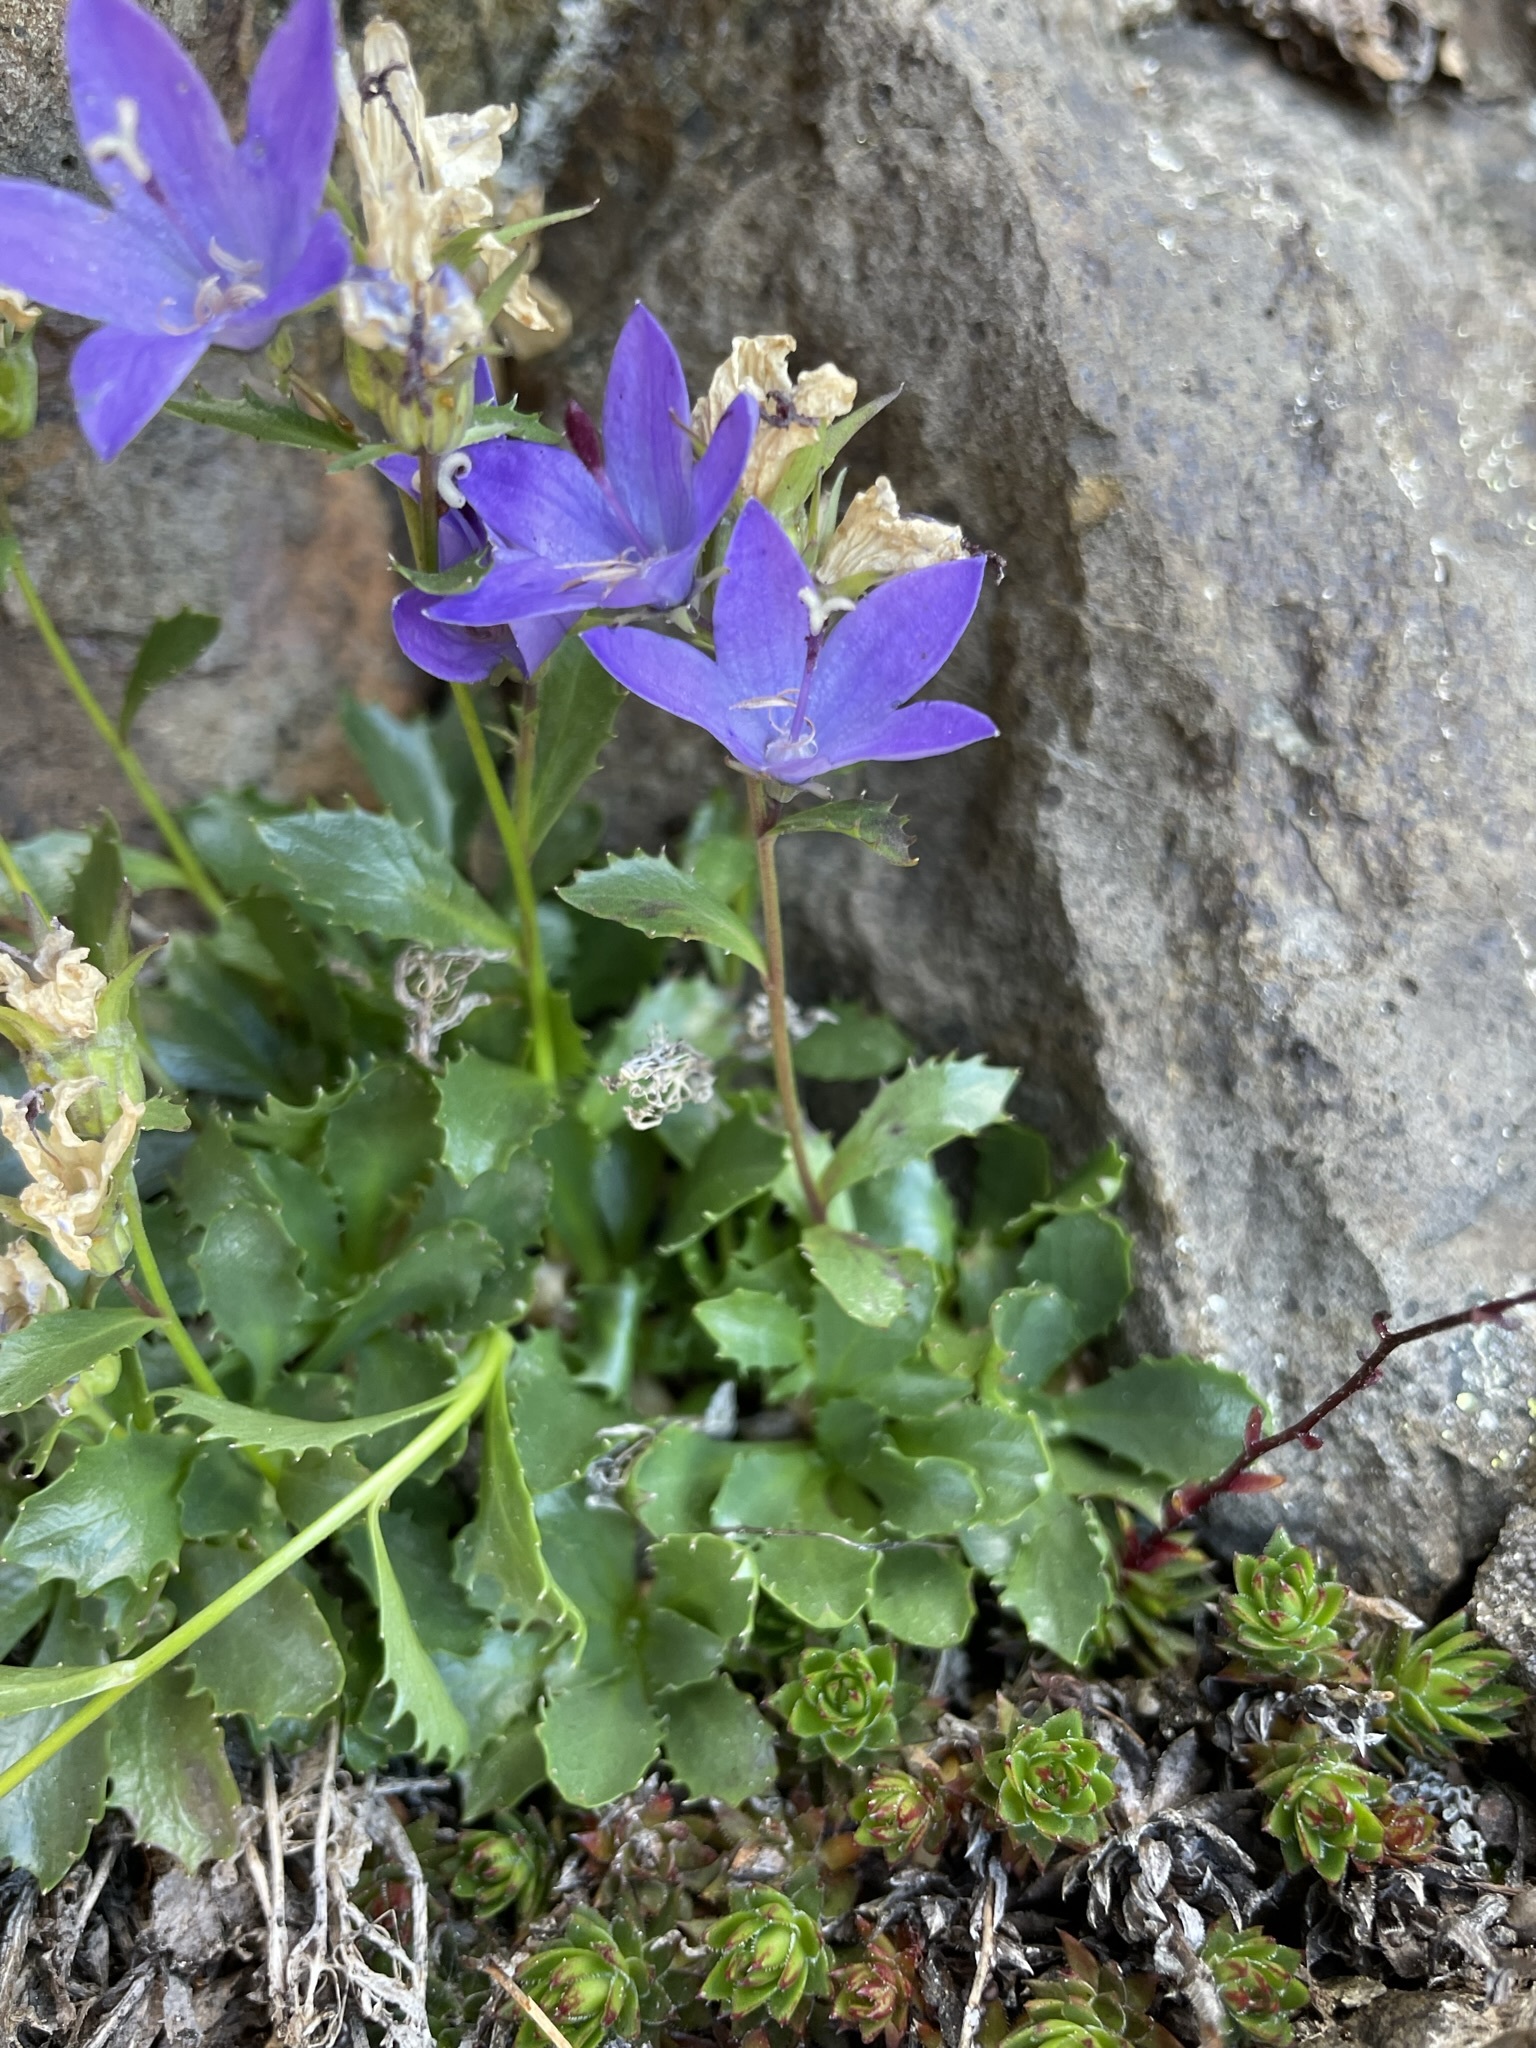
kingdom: Plantae
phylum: Tracheophyta
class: Magnoliopsida
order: Asterales
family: Campanulaceae
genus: Campanula
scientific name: Campanula piperi
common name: Olympic bellflower
